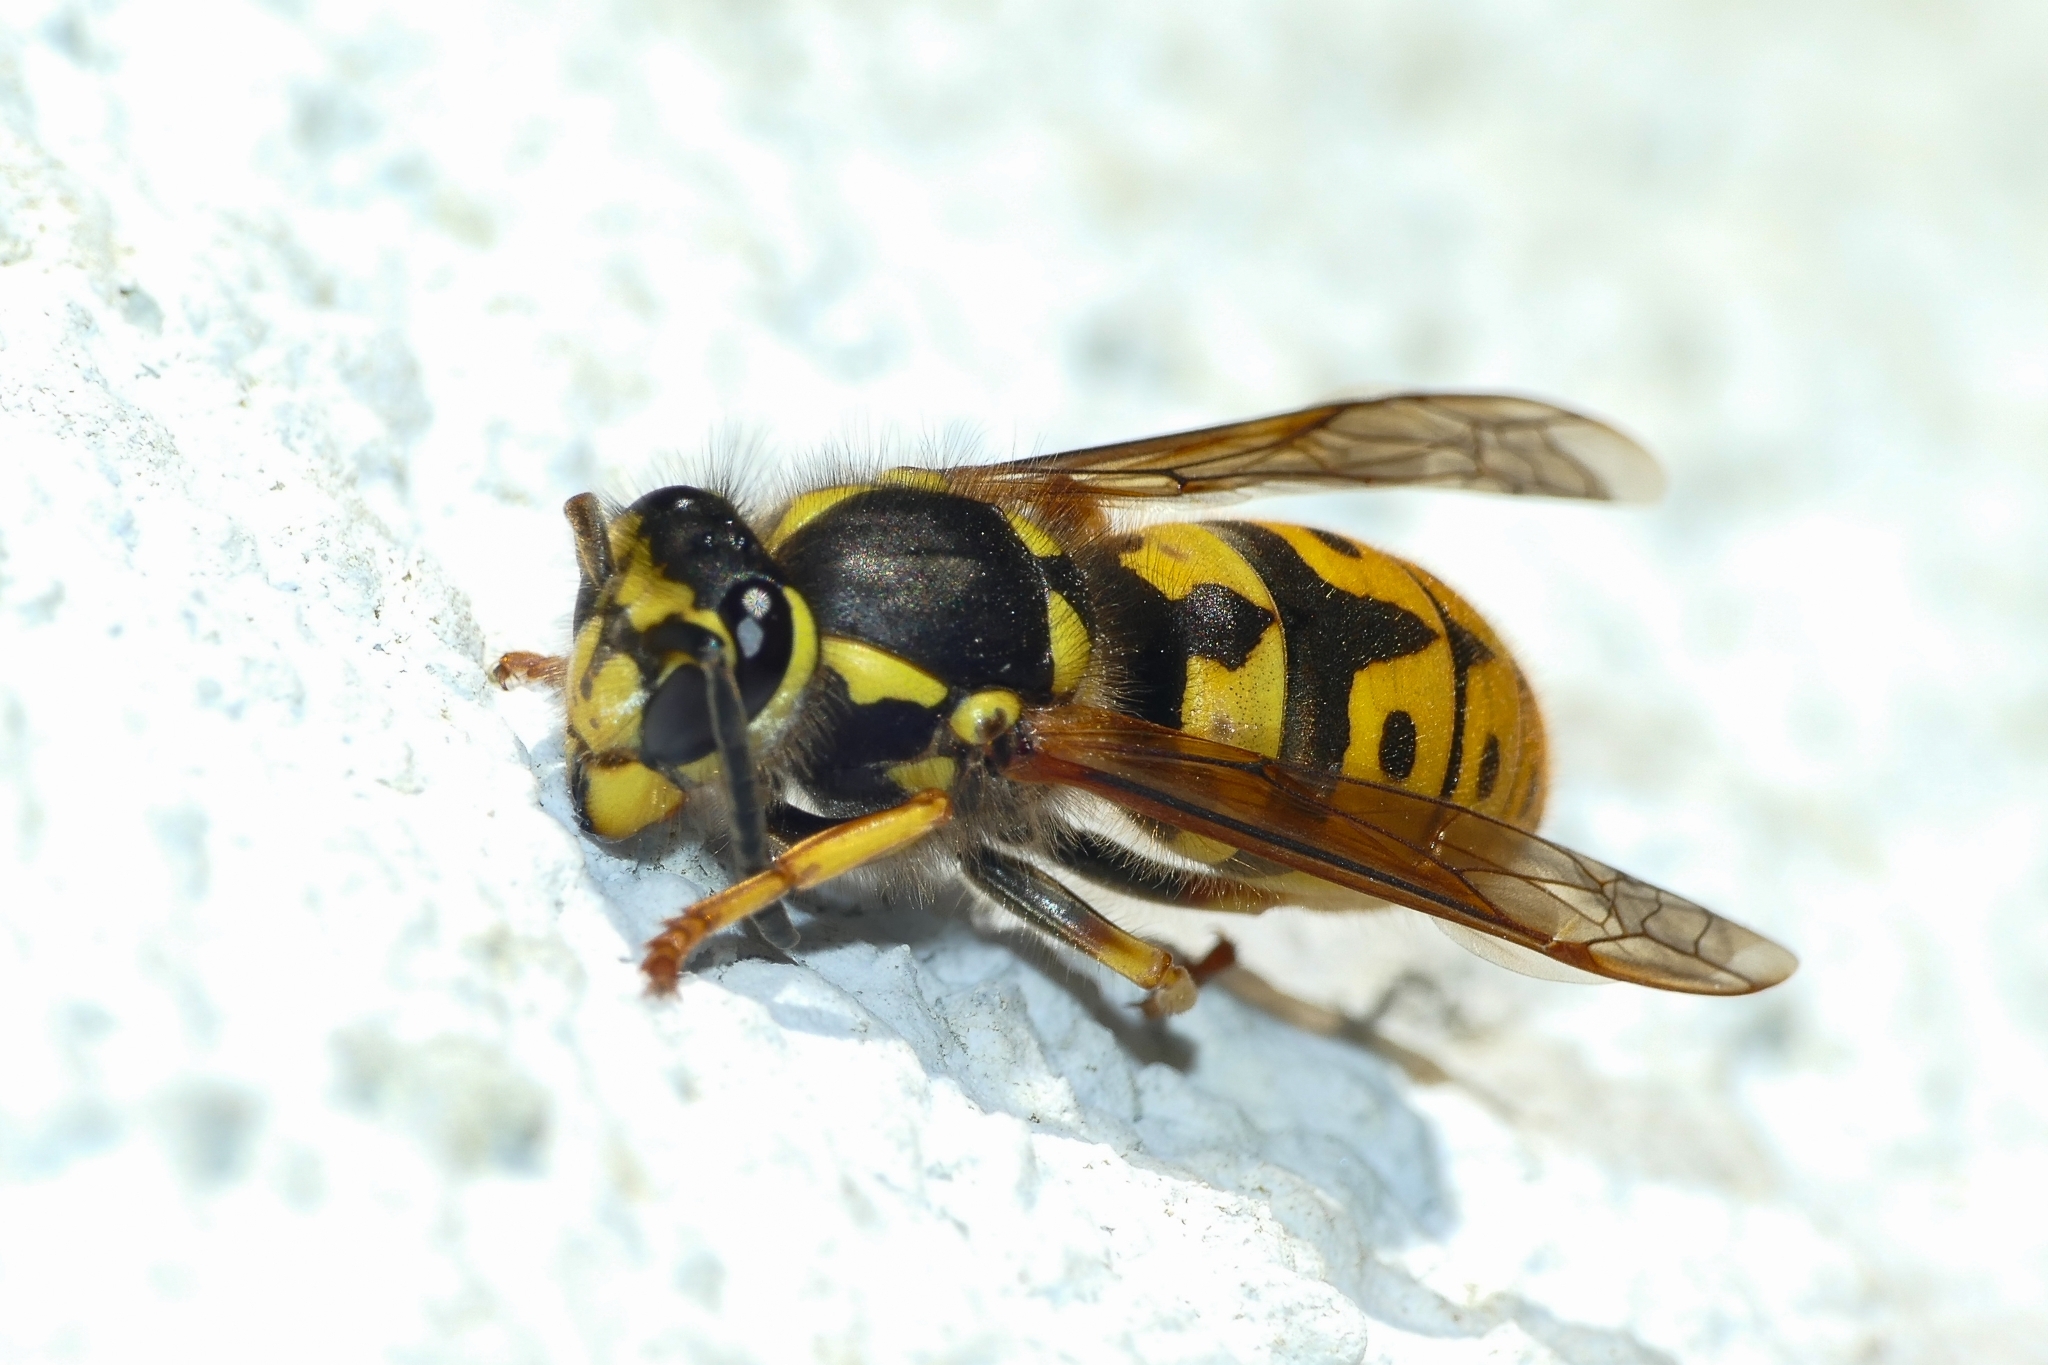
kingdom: Animalia
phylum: Arthropoda
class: Insecta
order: Hymenoptera
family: Vespidae
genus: Vespula
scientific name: Vespula germanica
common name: German wasp
